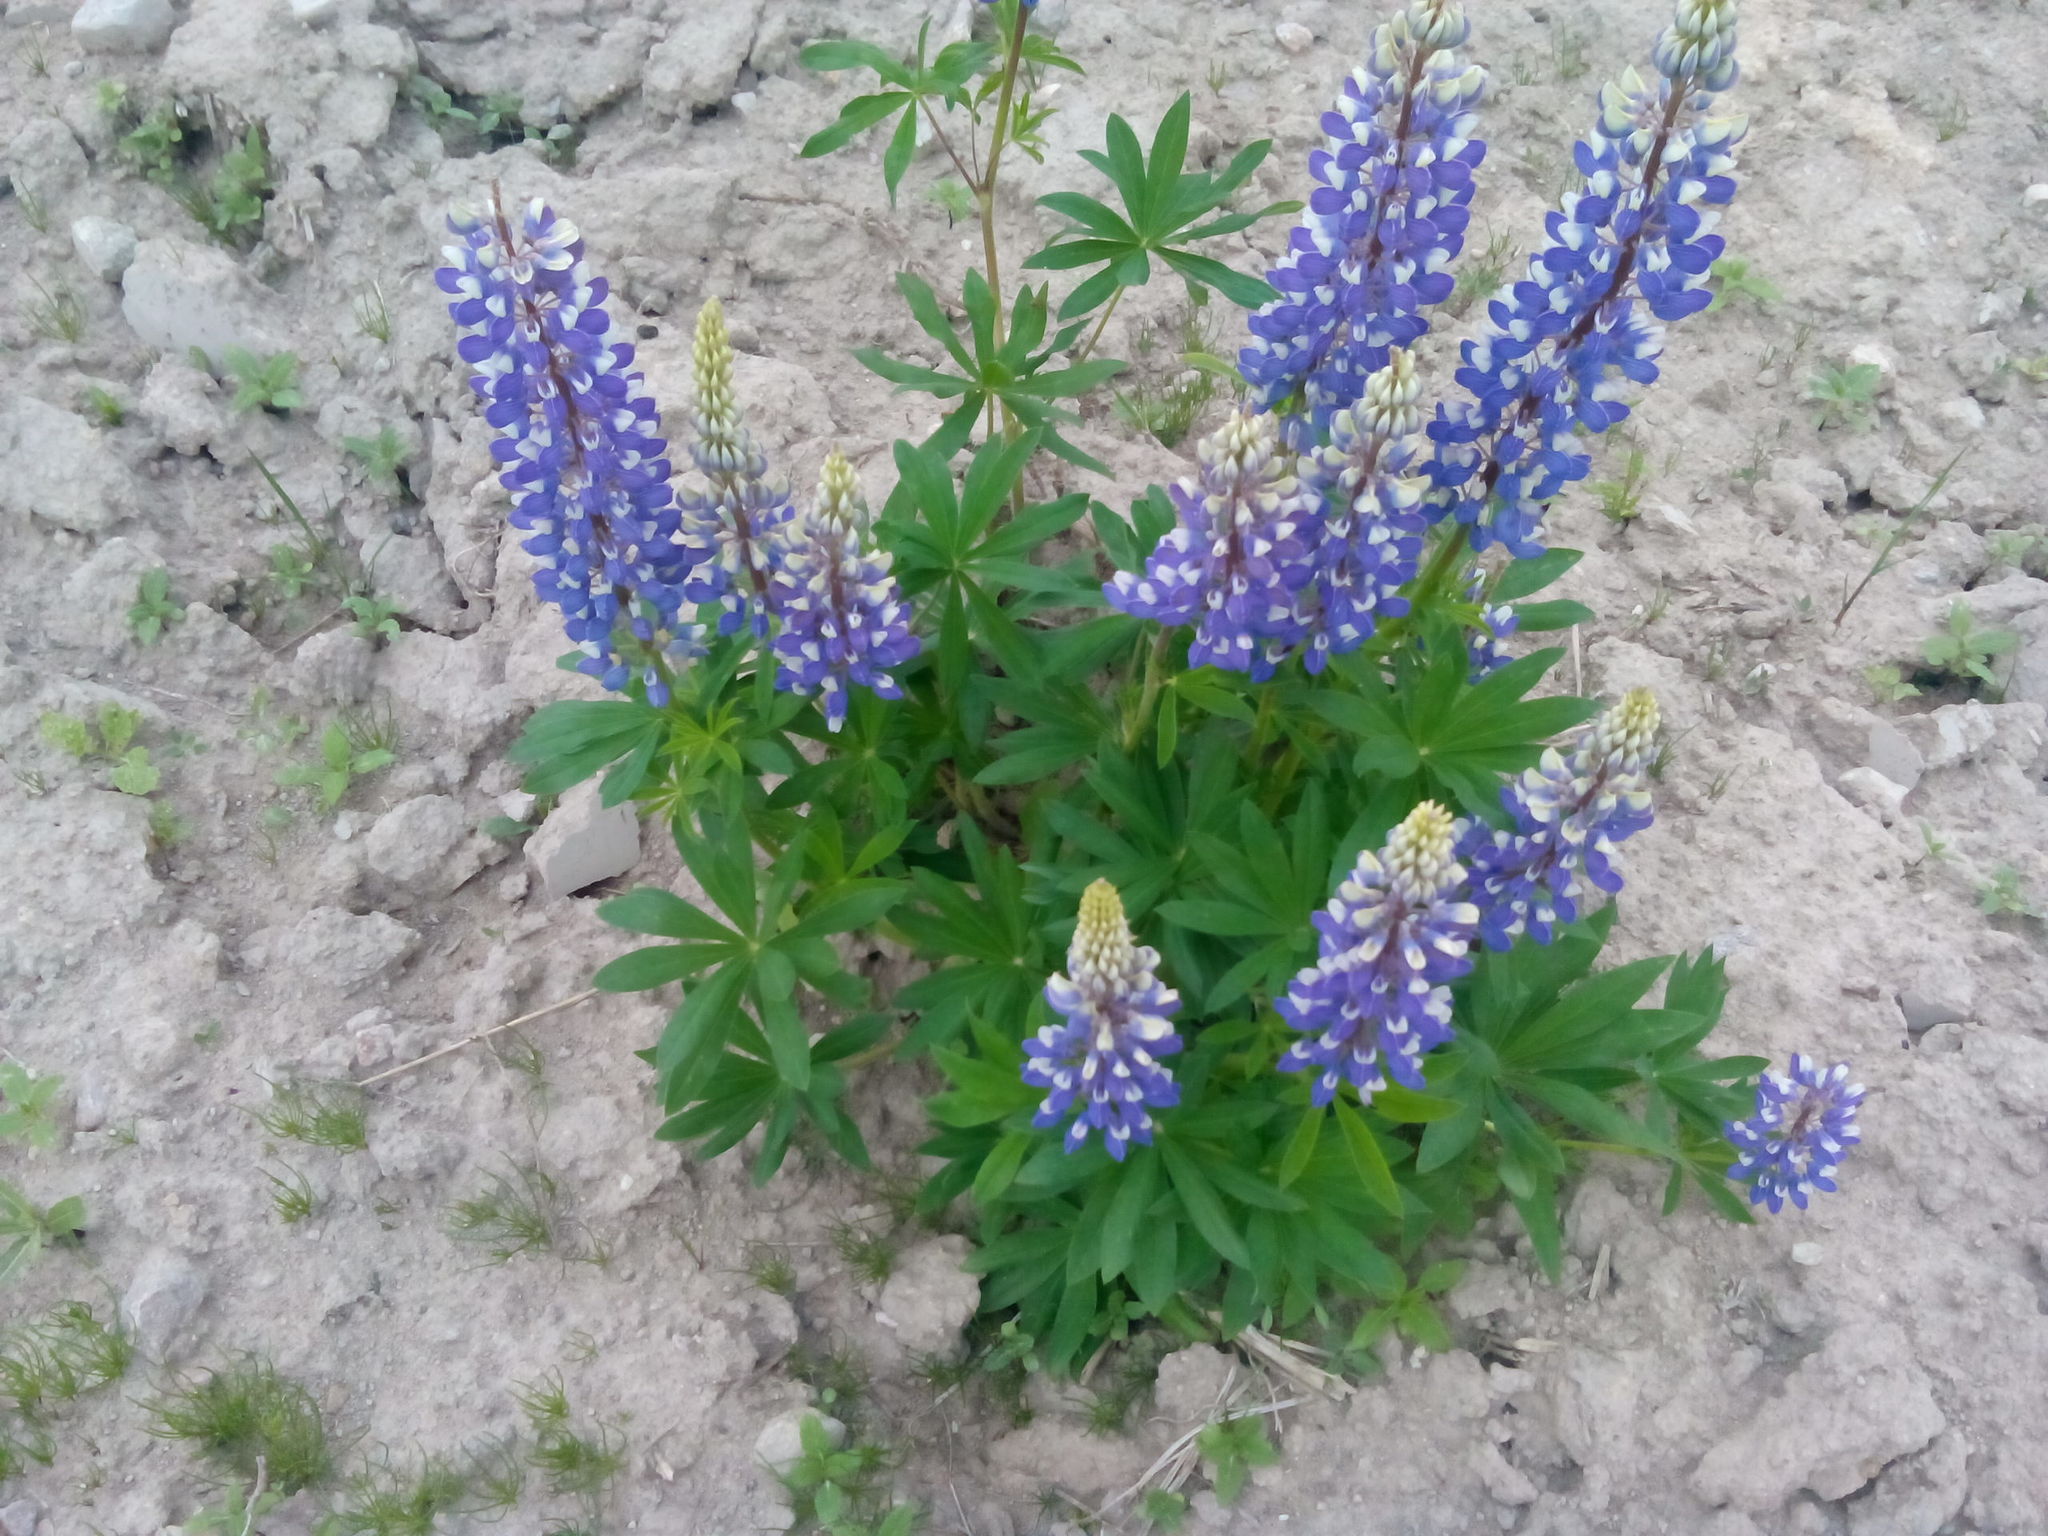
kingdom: Plantae
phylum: Tracheophyta
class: Magnoliopsida
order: Fabales
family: Fabaceae
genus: Lupinus
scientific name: Lupinus polyphyllus
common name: Garden lupin
